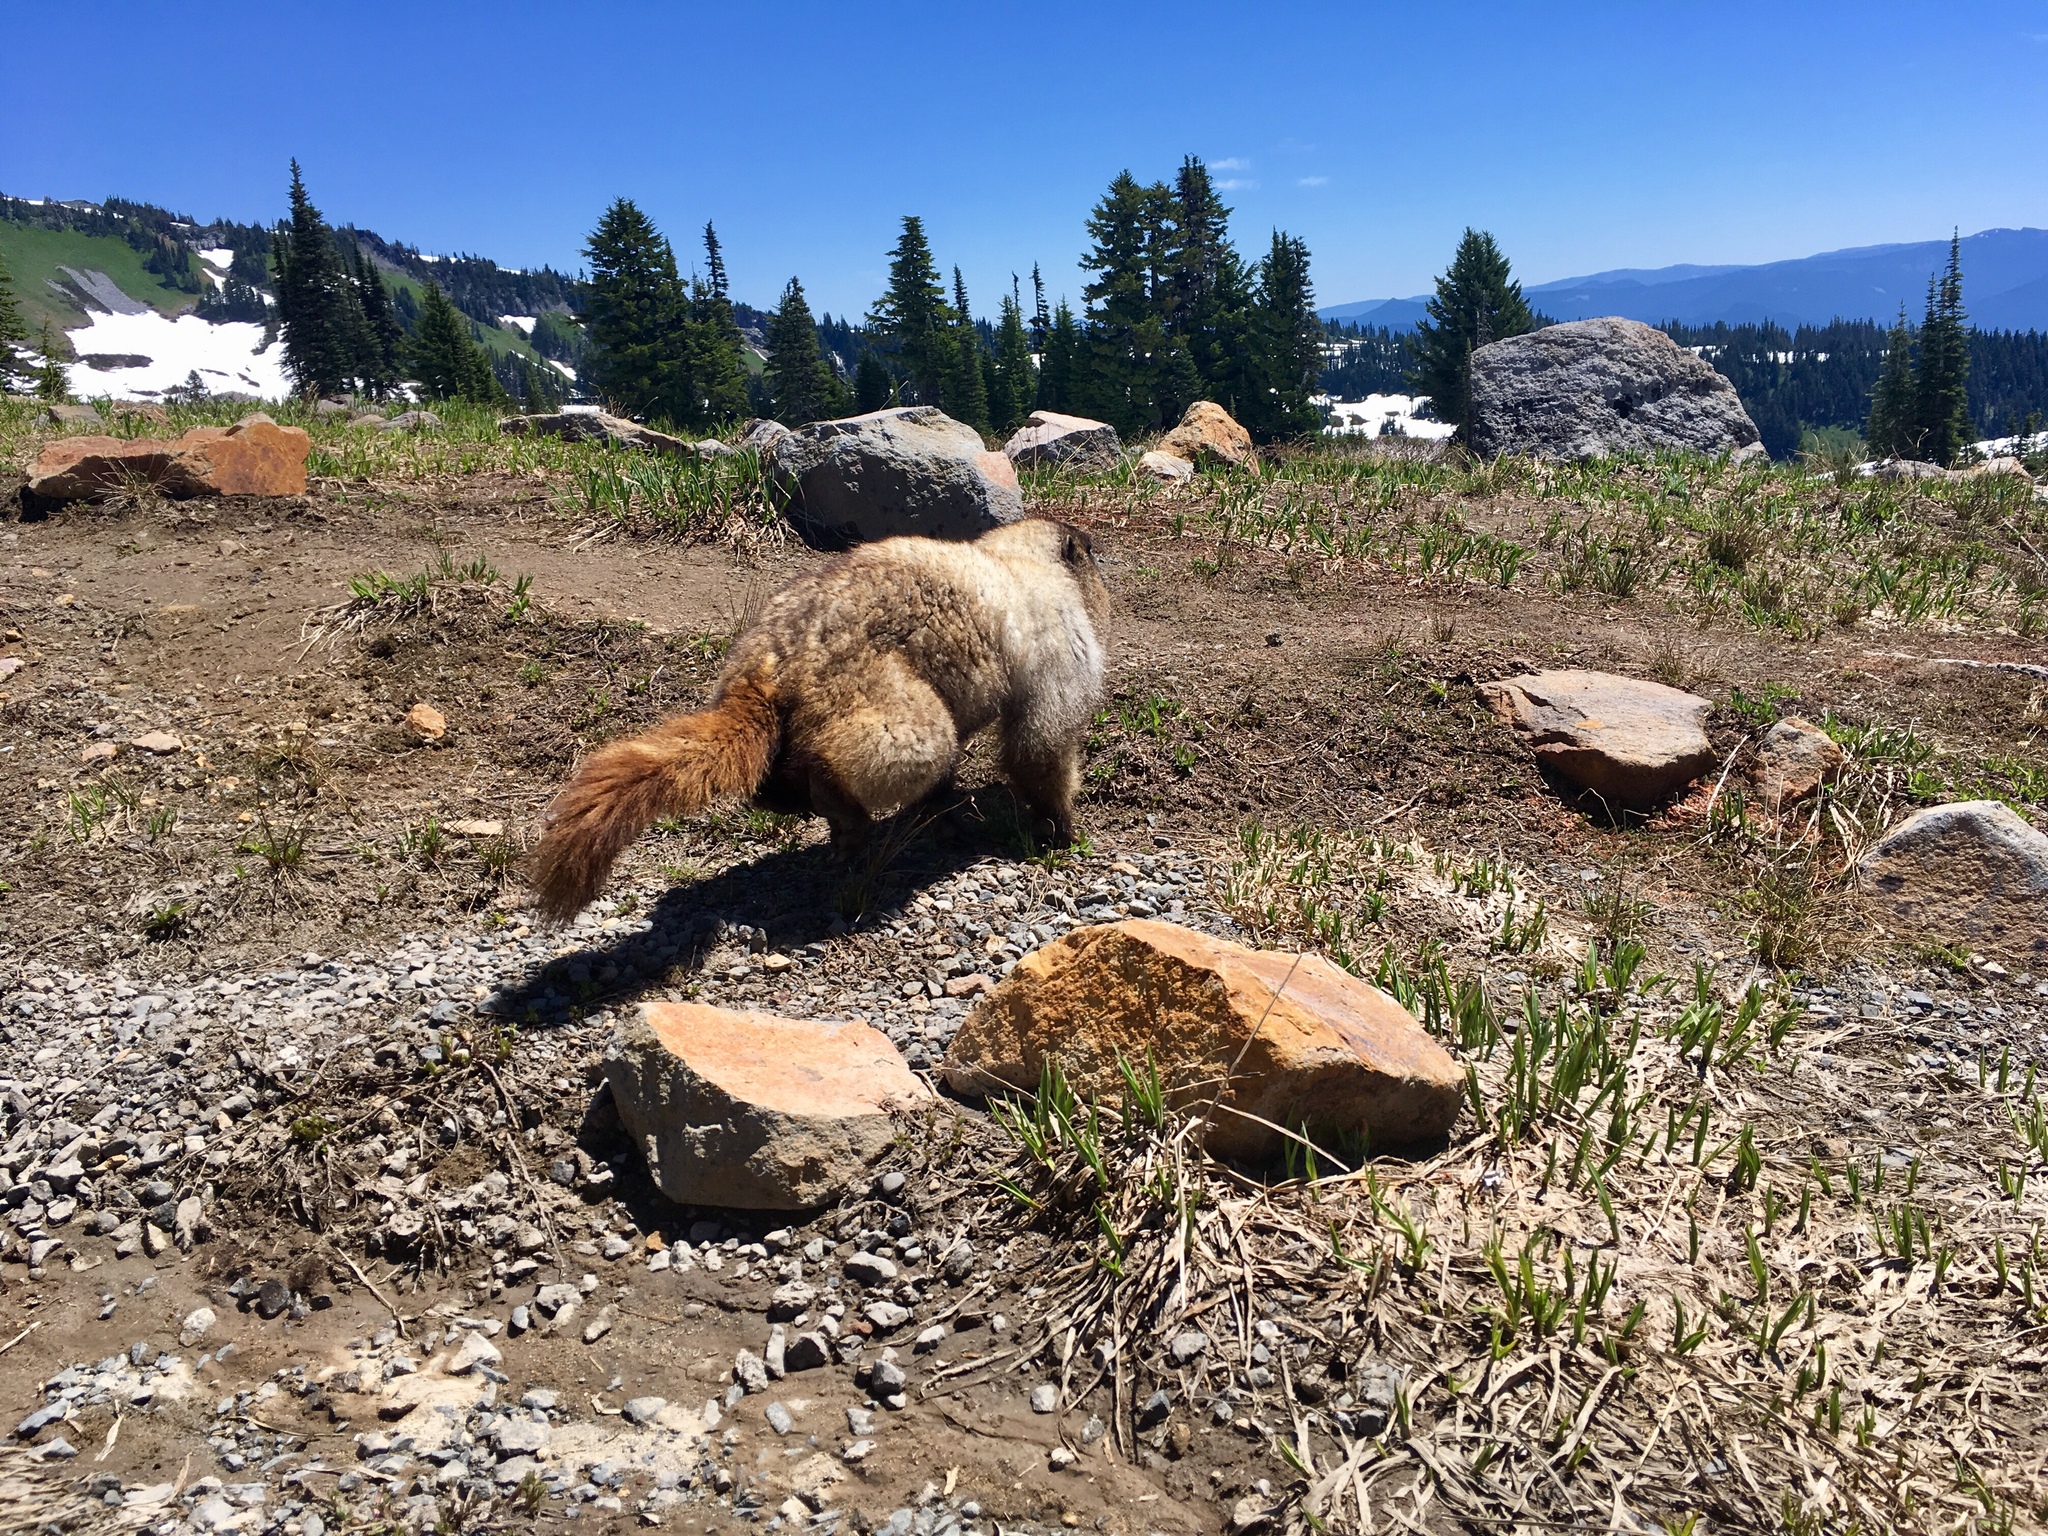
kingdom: Animalia
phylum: Chordata
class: Mammalia
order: Rodentia
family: Sciuridae
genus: Marmota
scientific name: Marmota caligata
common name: Hoary marmot
